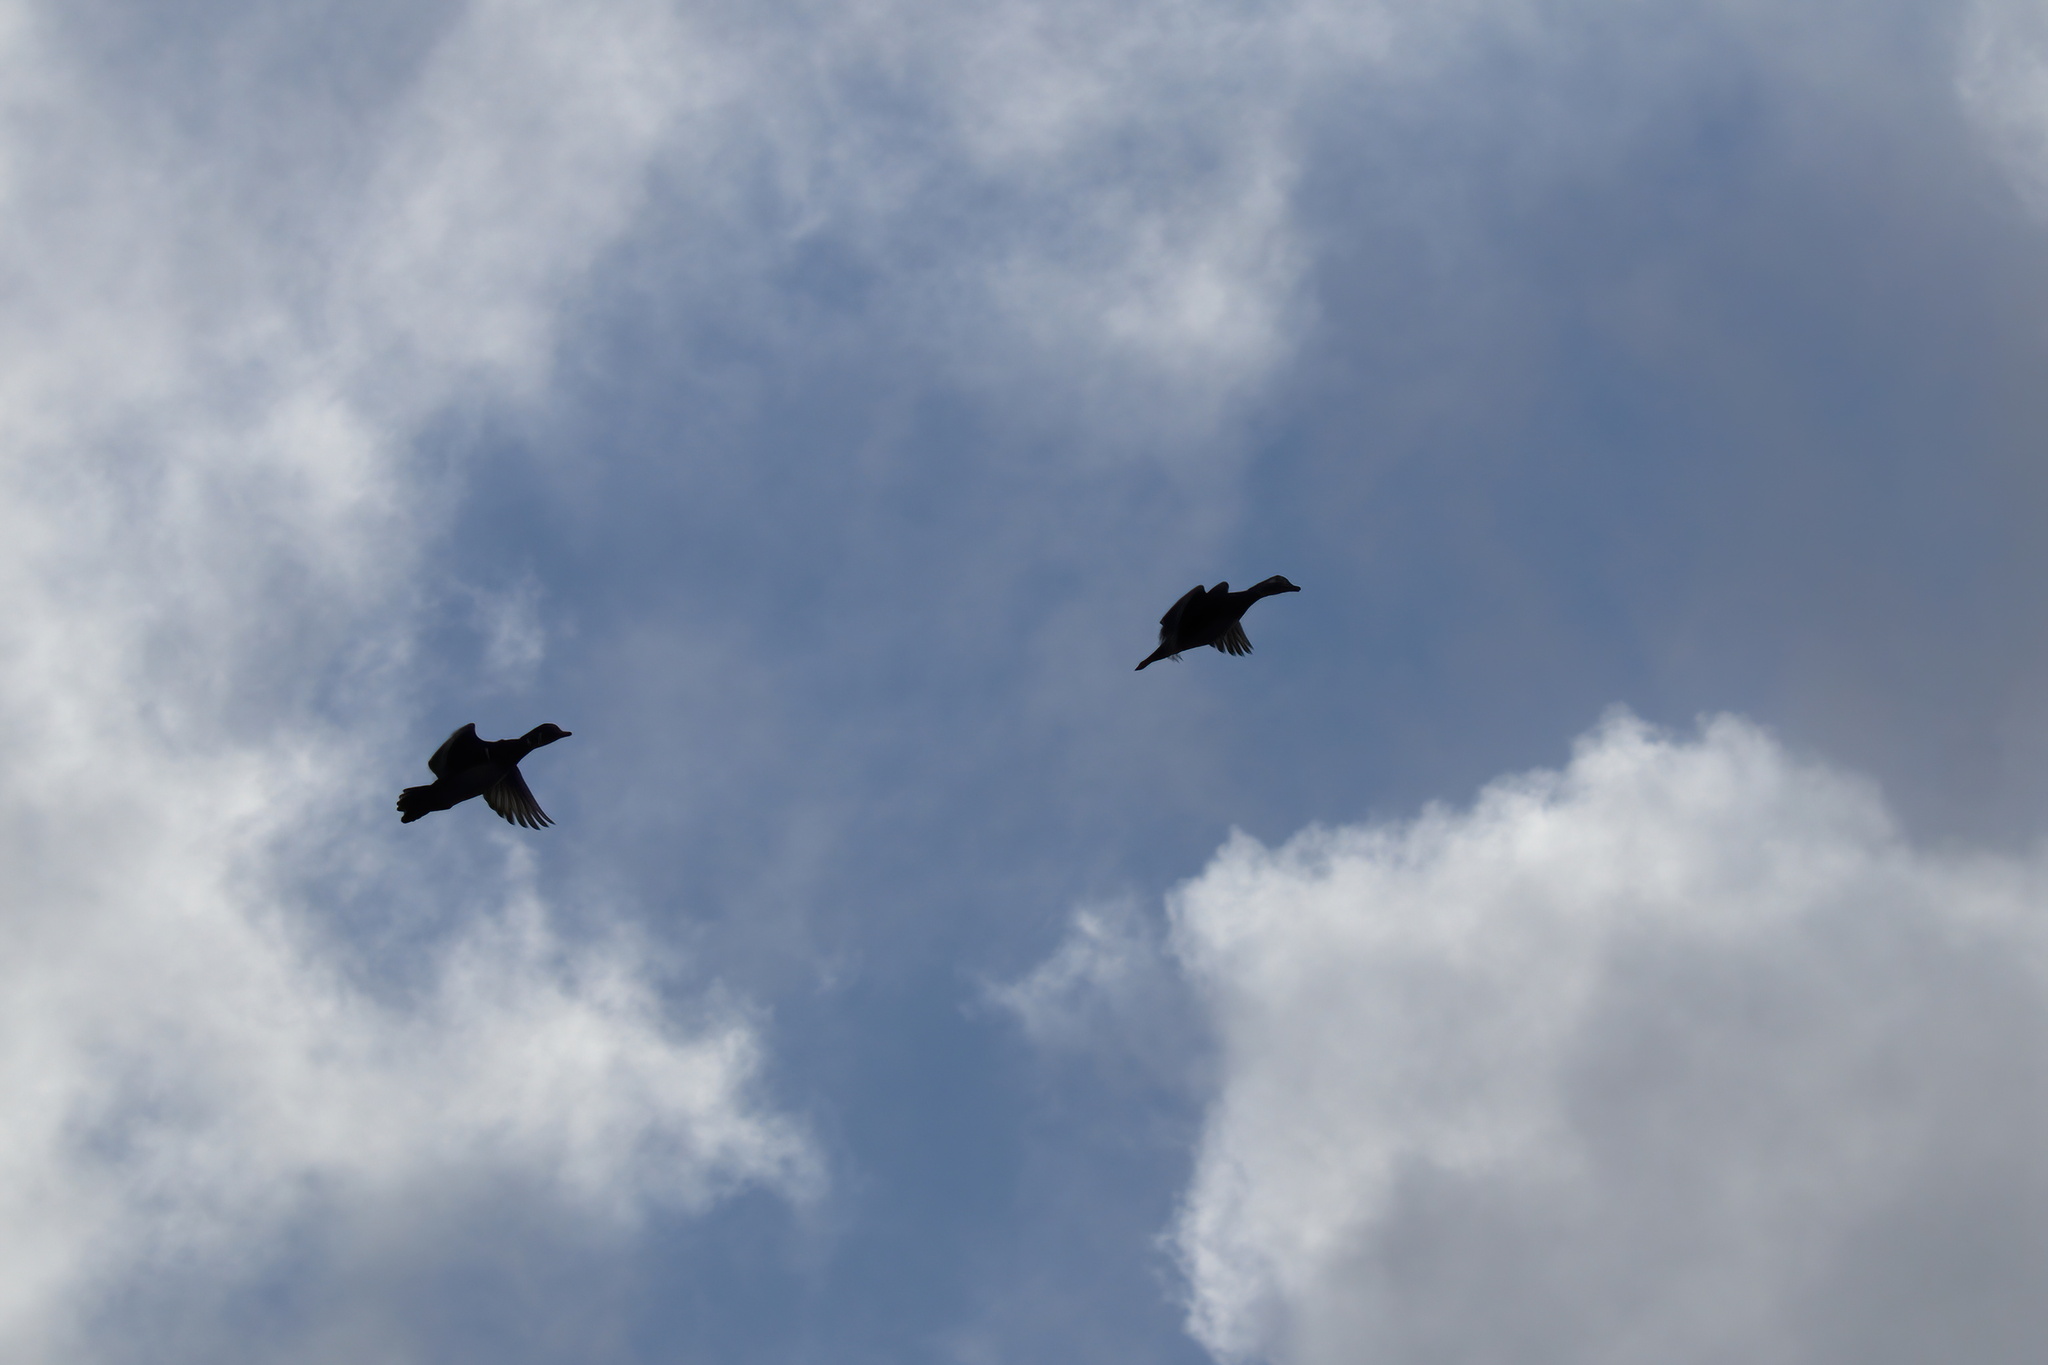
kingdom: Animalia
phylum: Chordata
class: Aves
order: Anseriformes
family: Anatidae
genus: Aix
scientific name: Aix sponsa
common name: Wood duck
